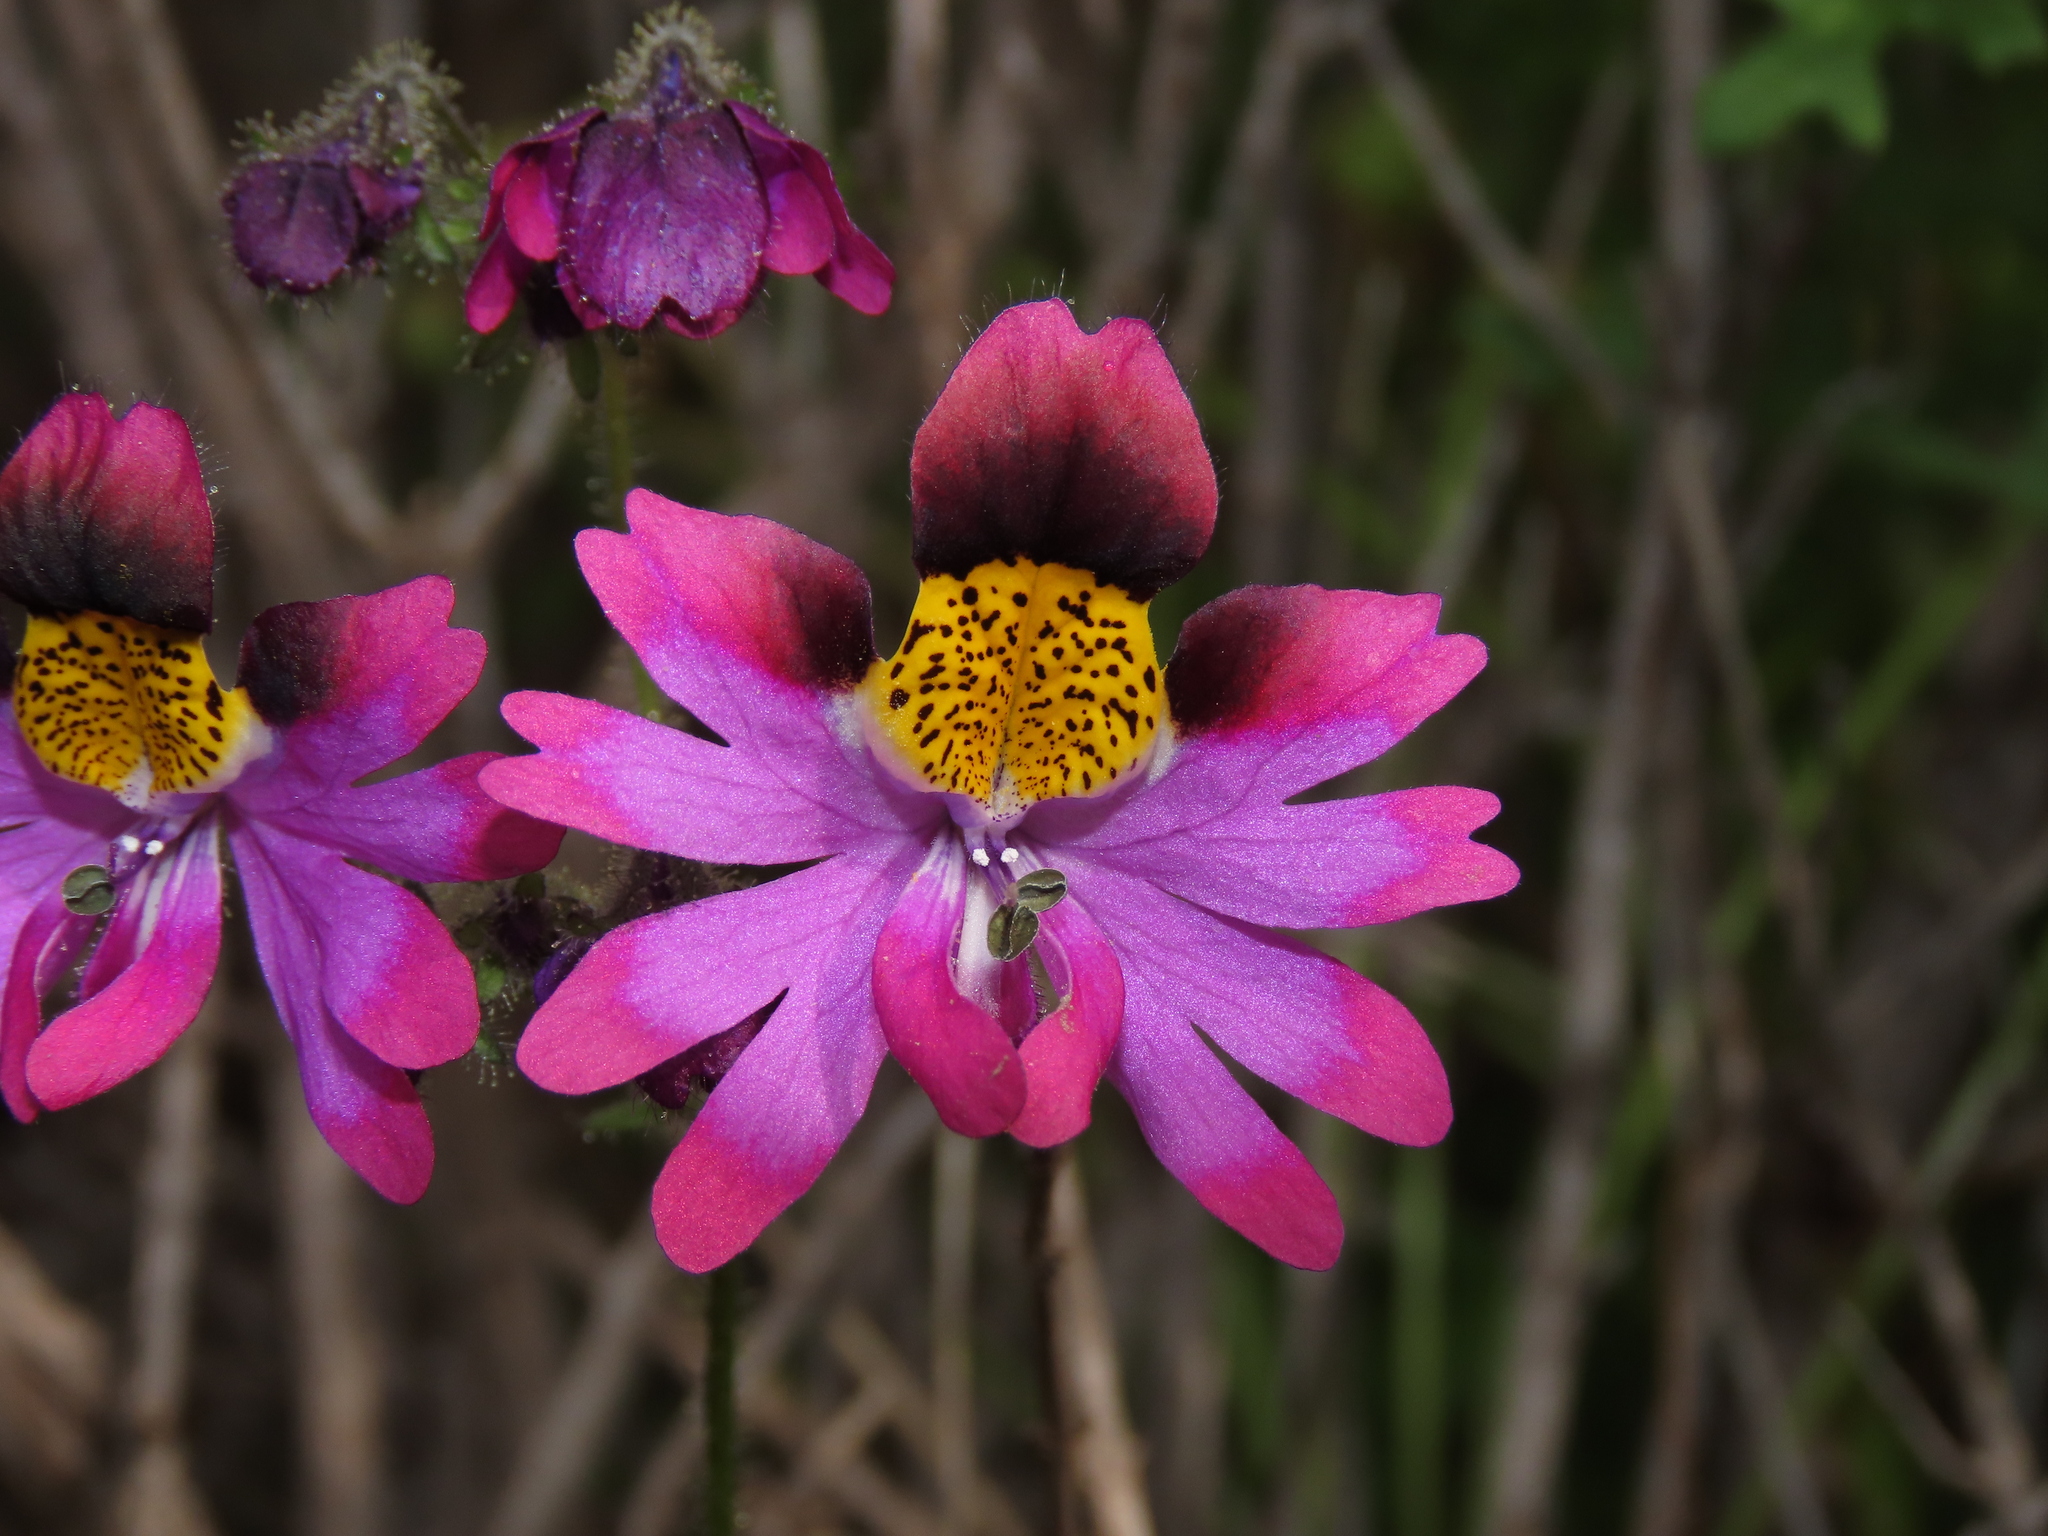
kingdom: Plantae
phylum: Tracheophyta
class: Magnoliopsida
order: Solanales
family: Solanaceae
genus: Schizanthus
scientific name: Schizanthus carlomunozii
